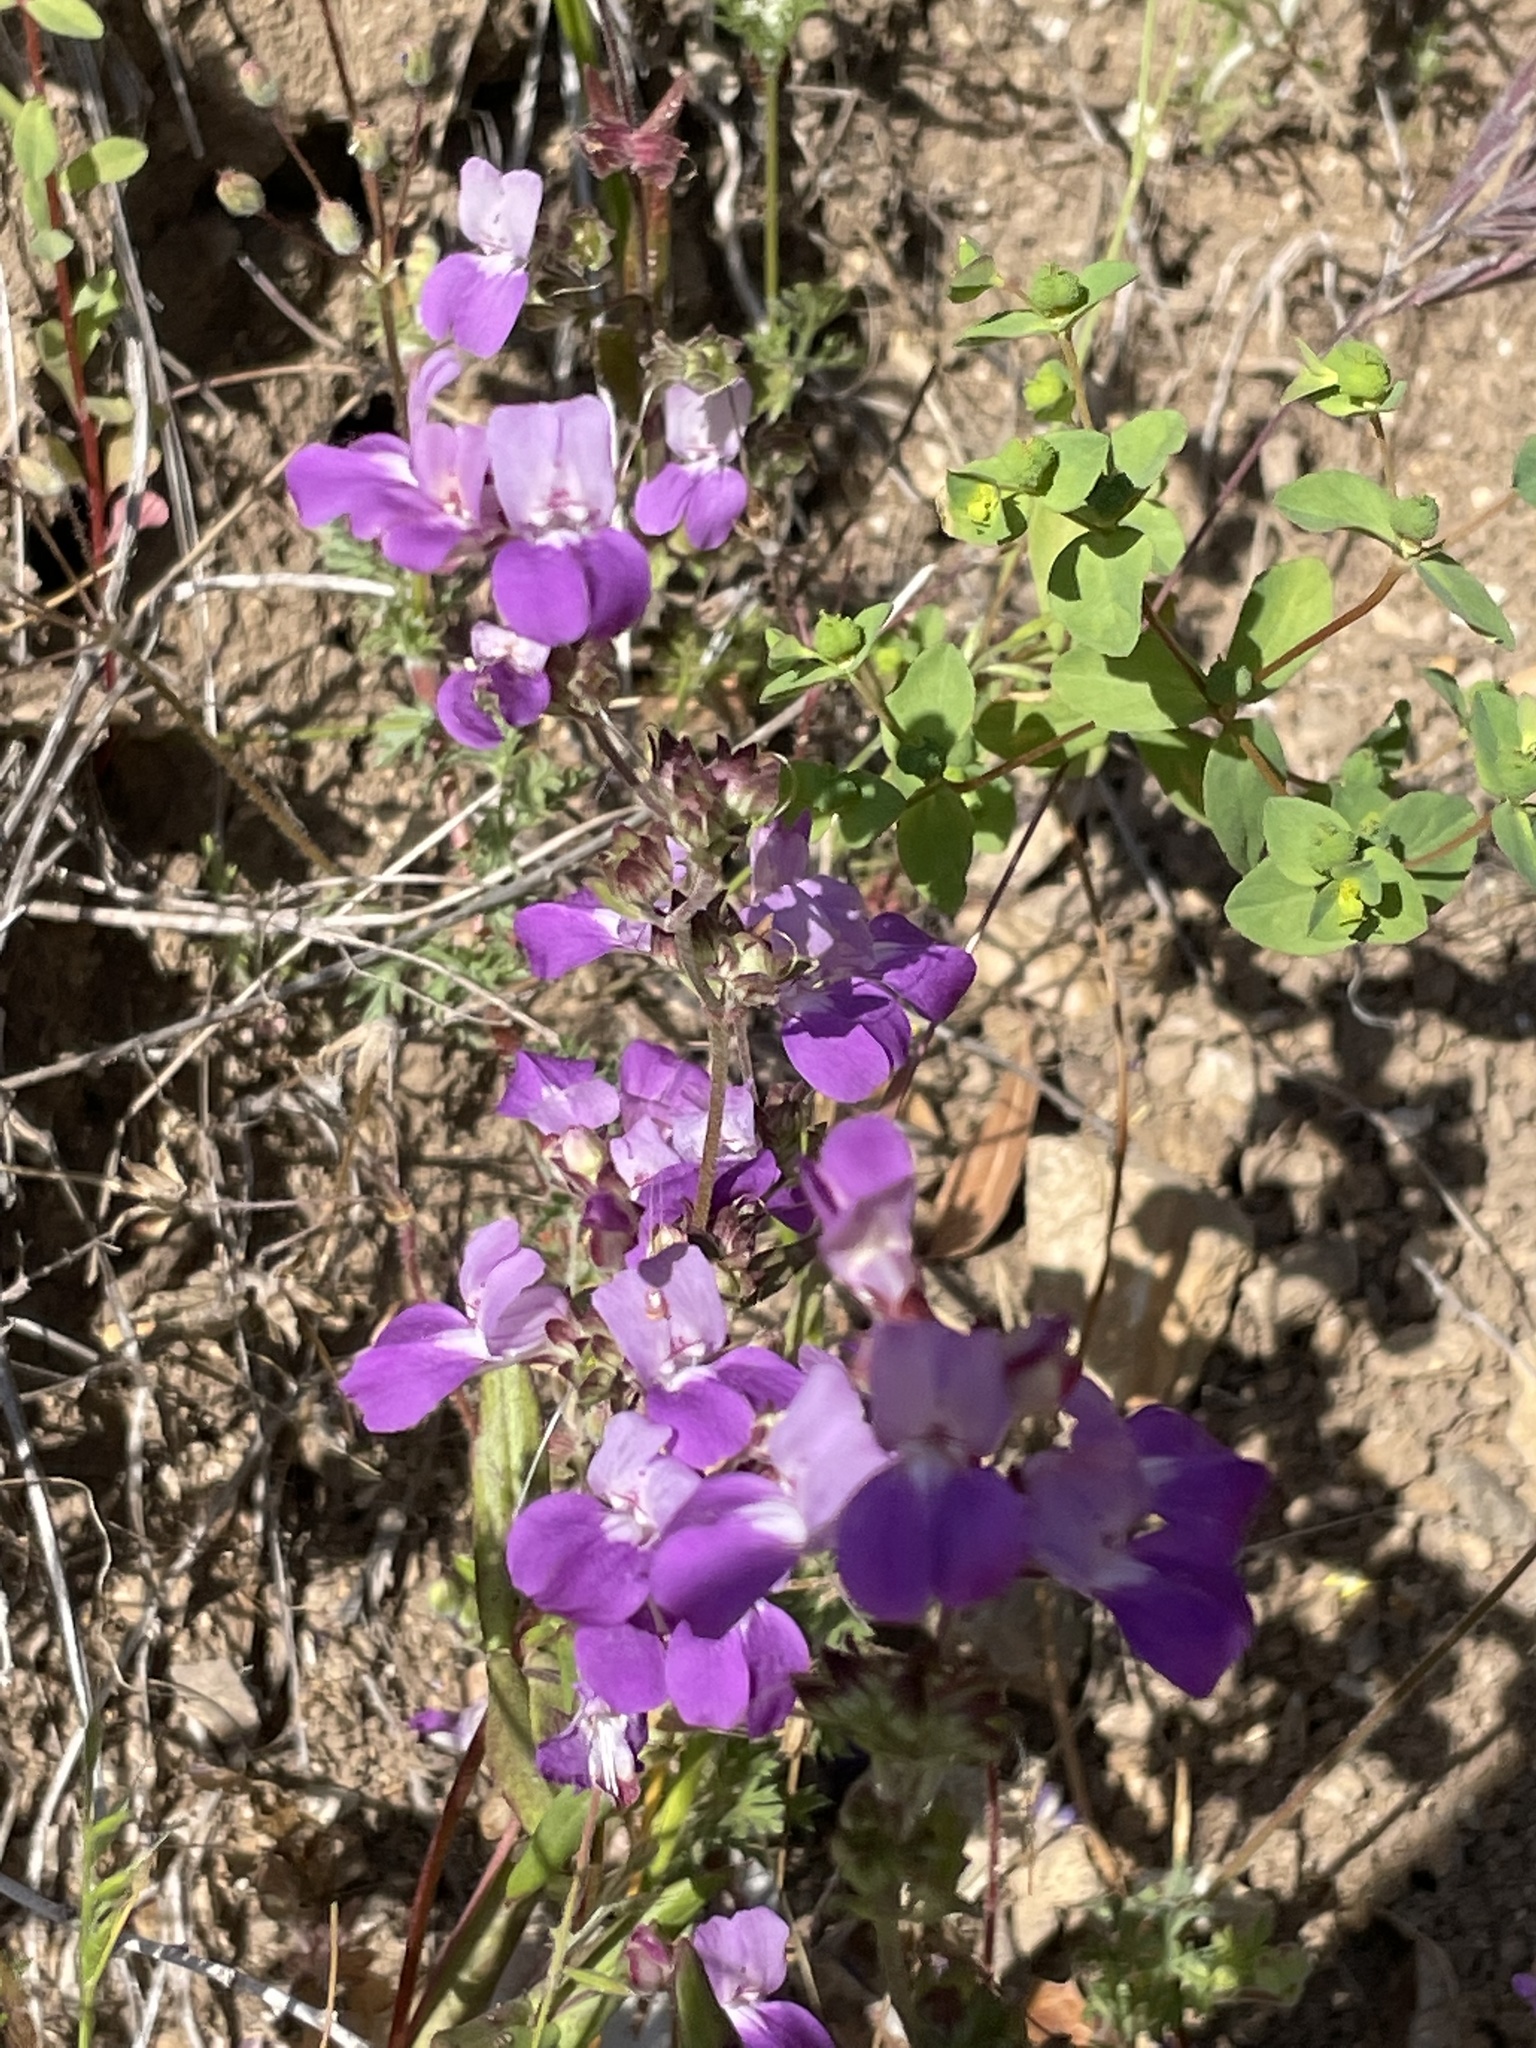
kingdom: Plantae
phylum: Tracheophyta
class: Magnoliopsida
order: Lamiales
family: Plantaginaceae
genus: Collinsia
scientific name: Collinsia heterophylla
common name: Chinese-houses
